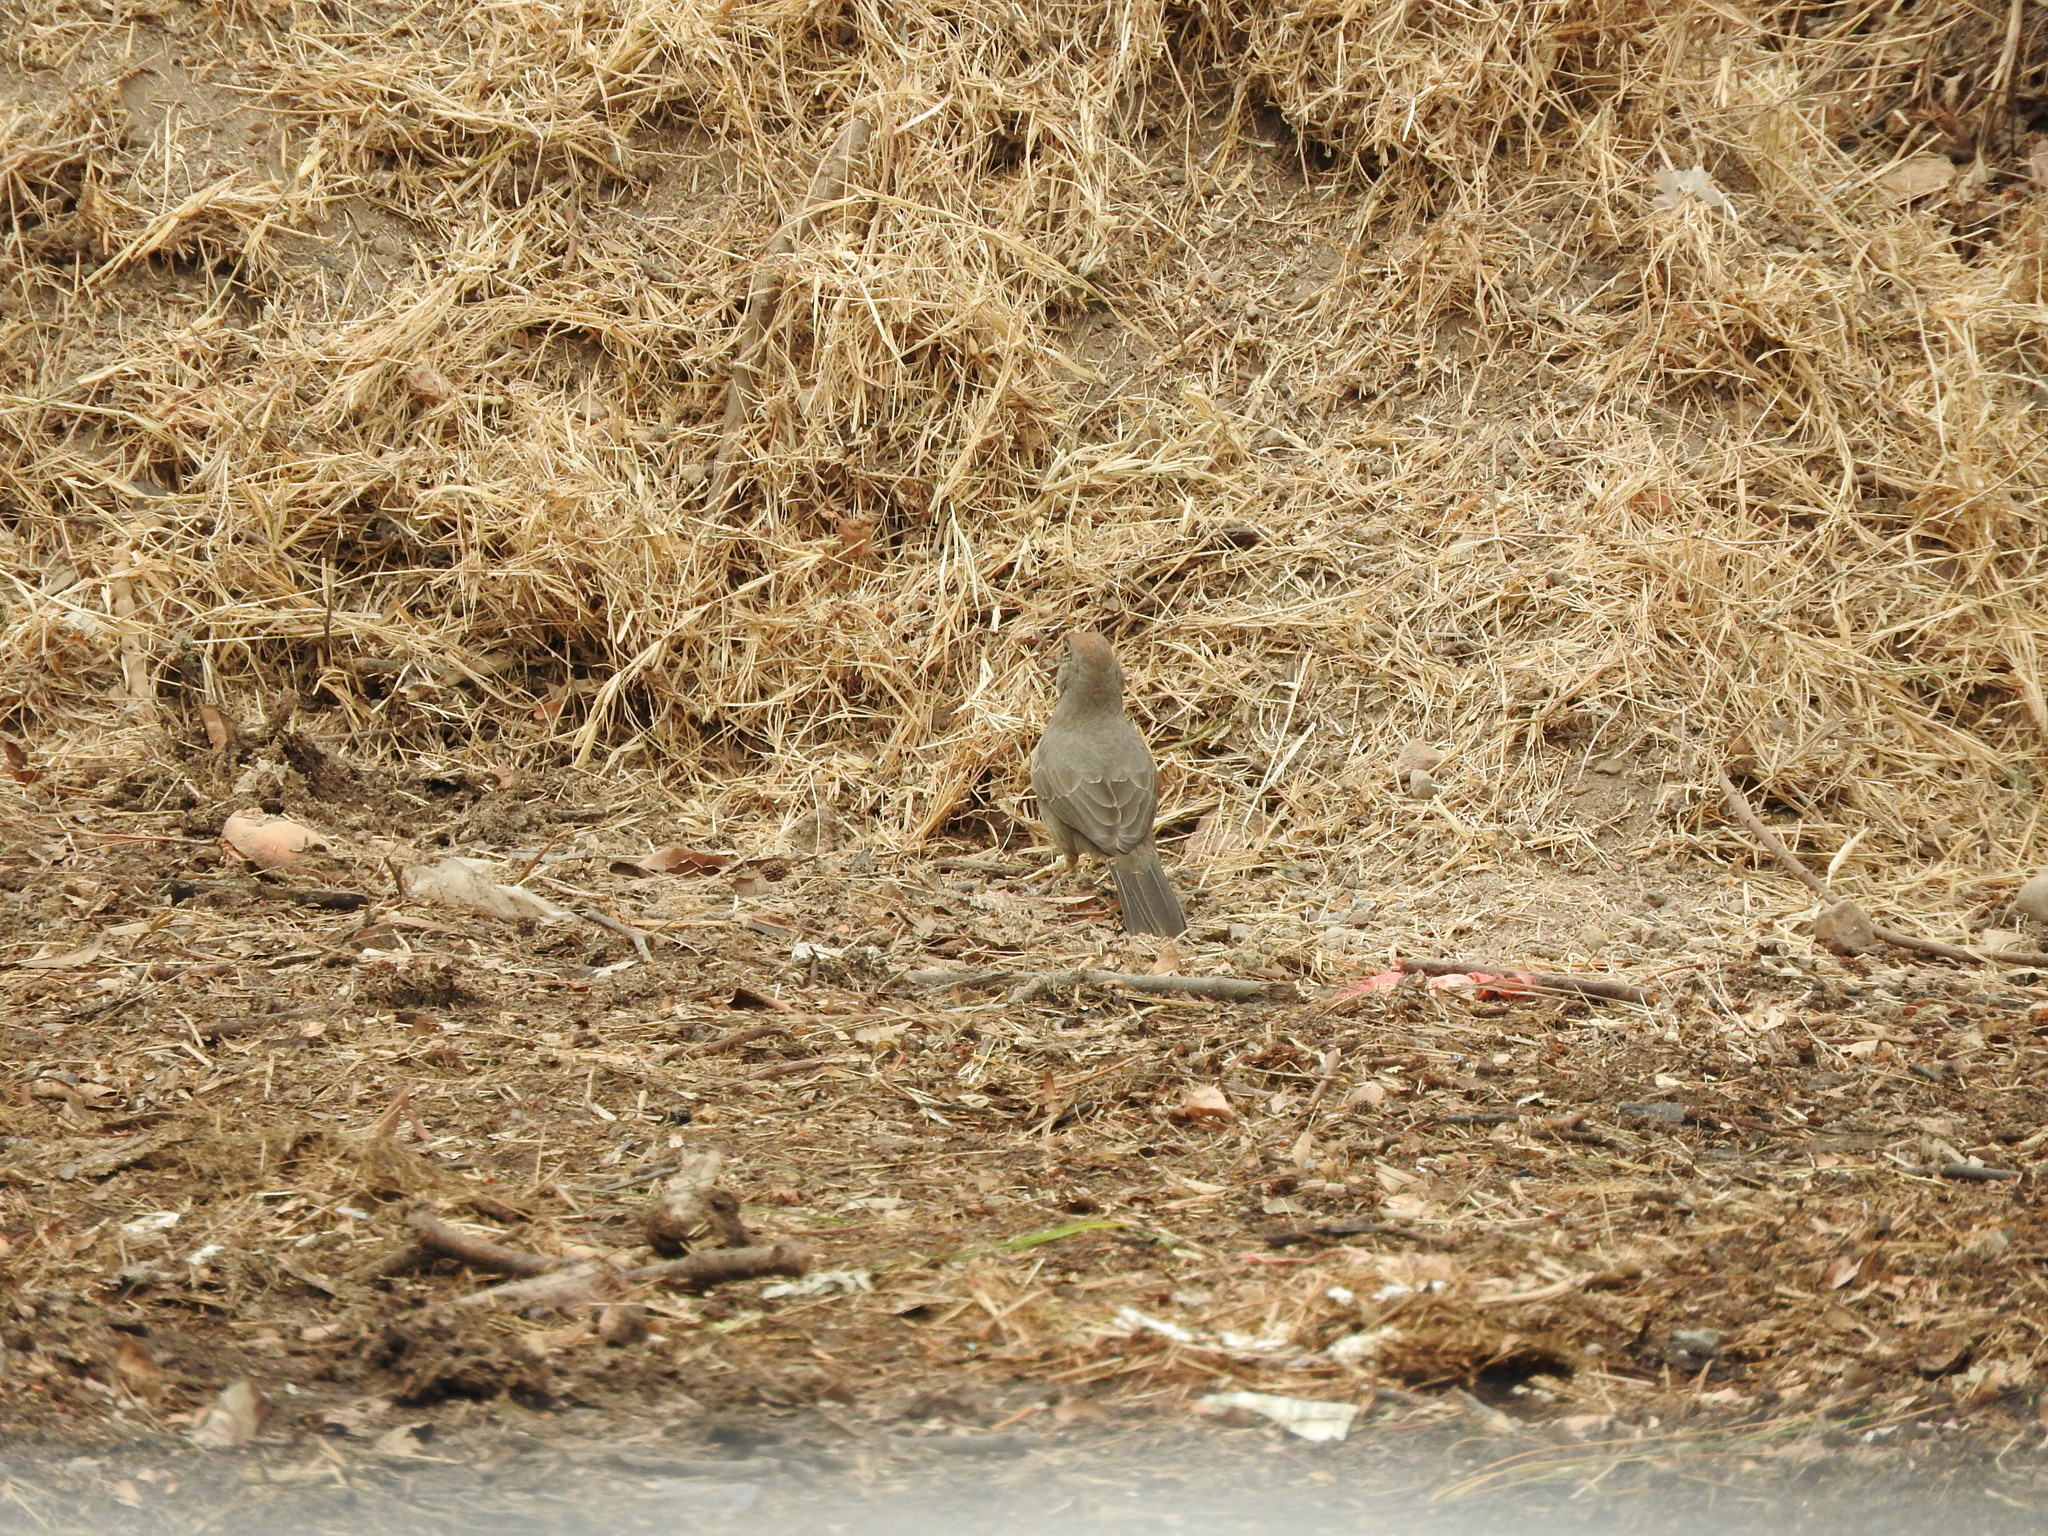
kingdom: Animalia
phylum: Chordata
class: Aves
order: Passeriformes
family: Passerellidae
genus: Melozone
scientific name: Melozone fusca
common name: Canyon towhee
